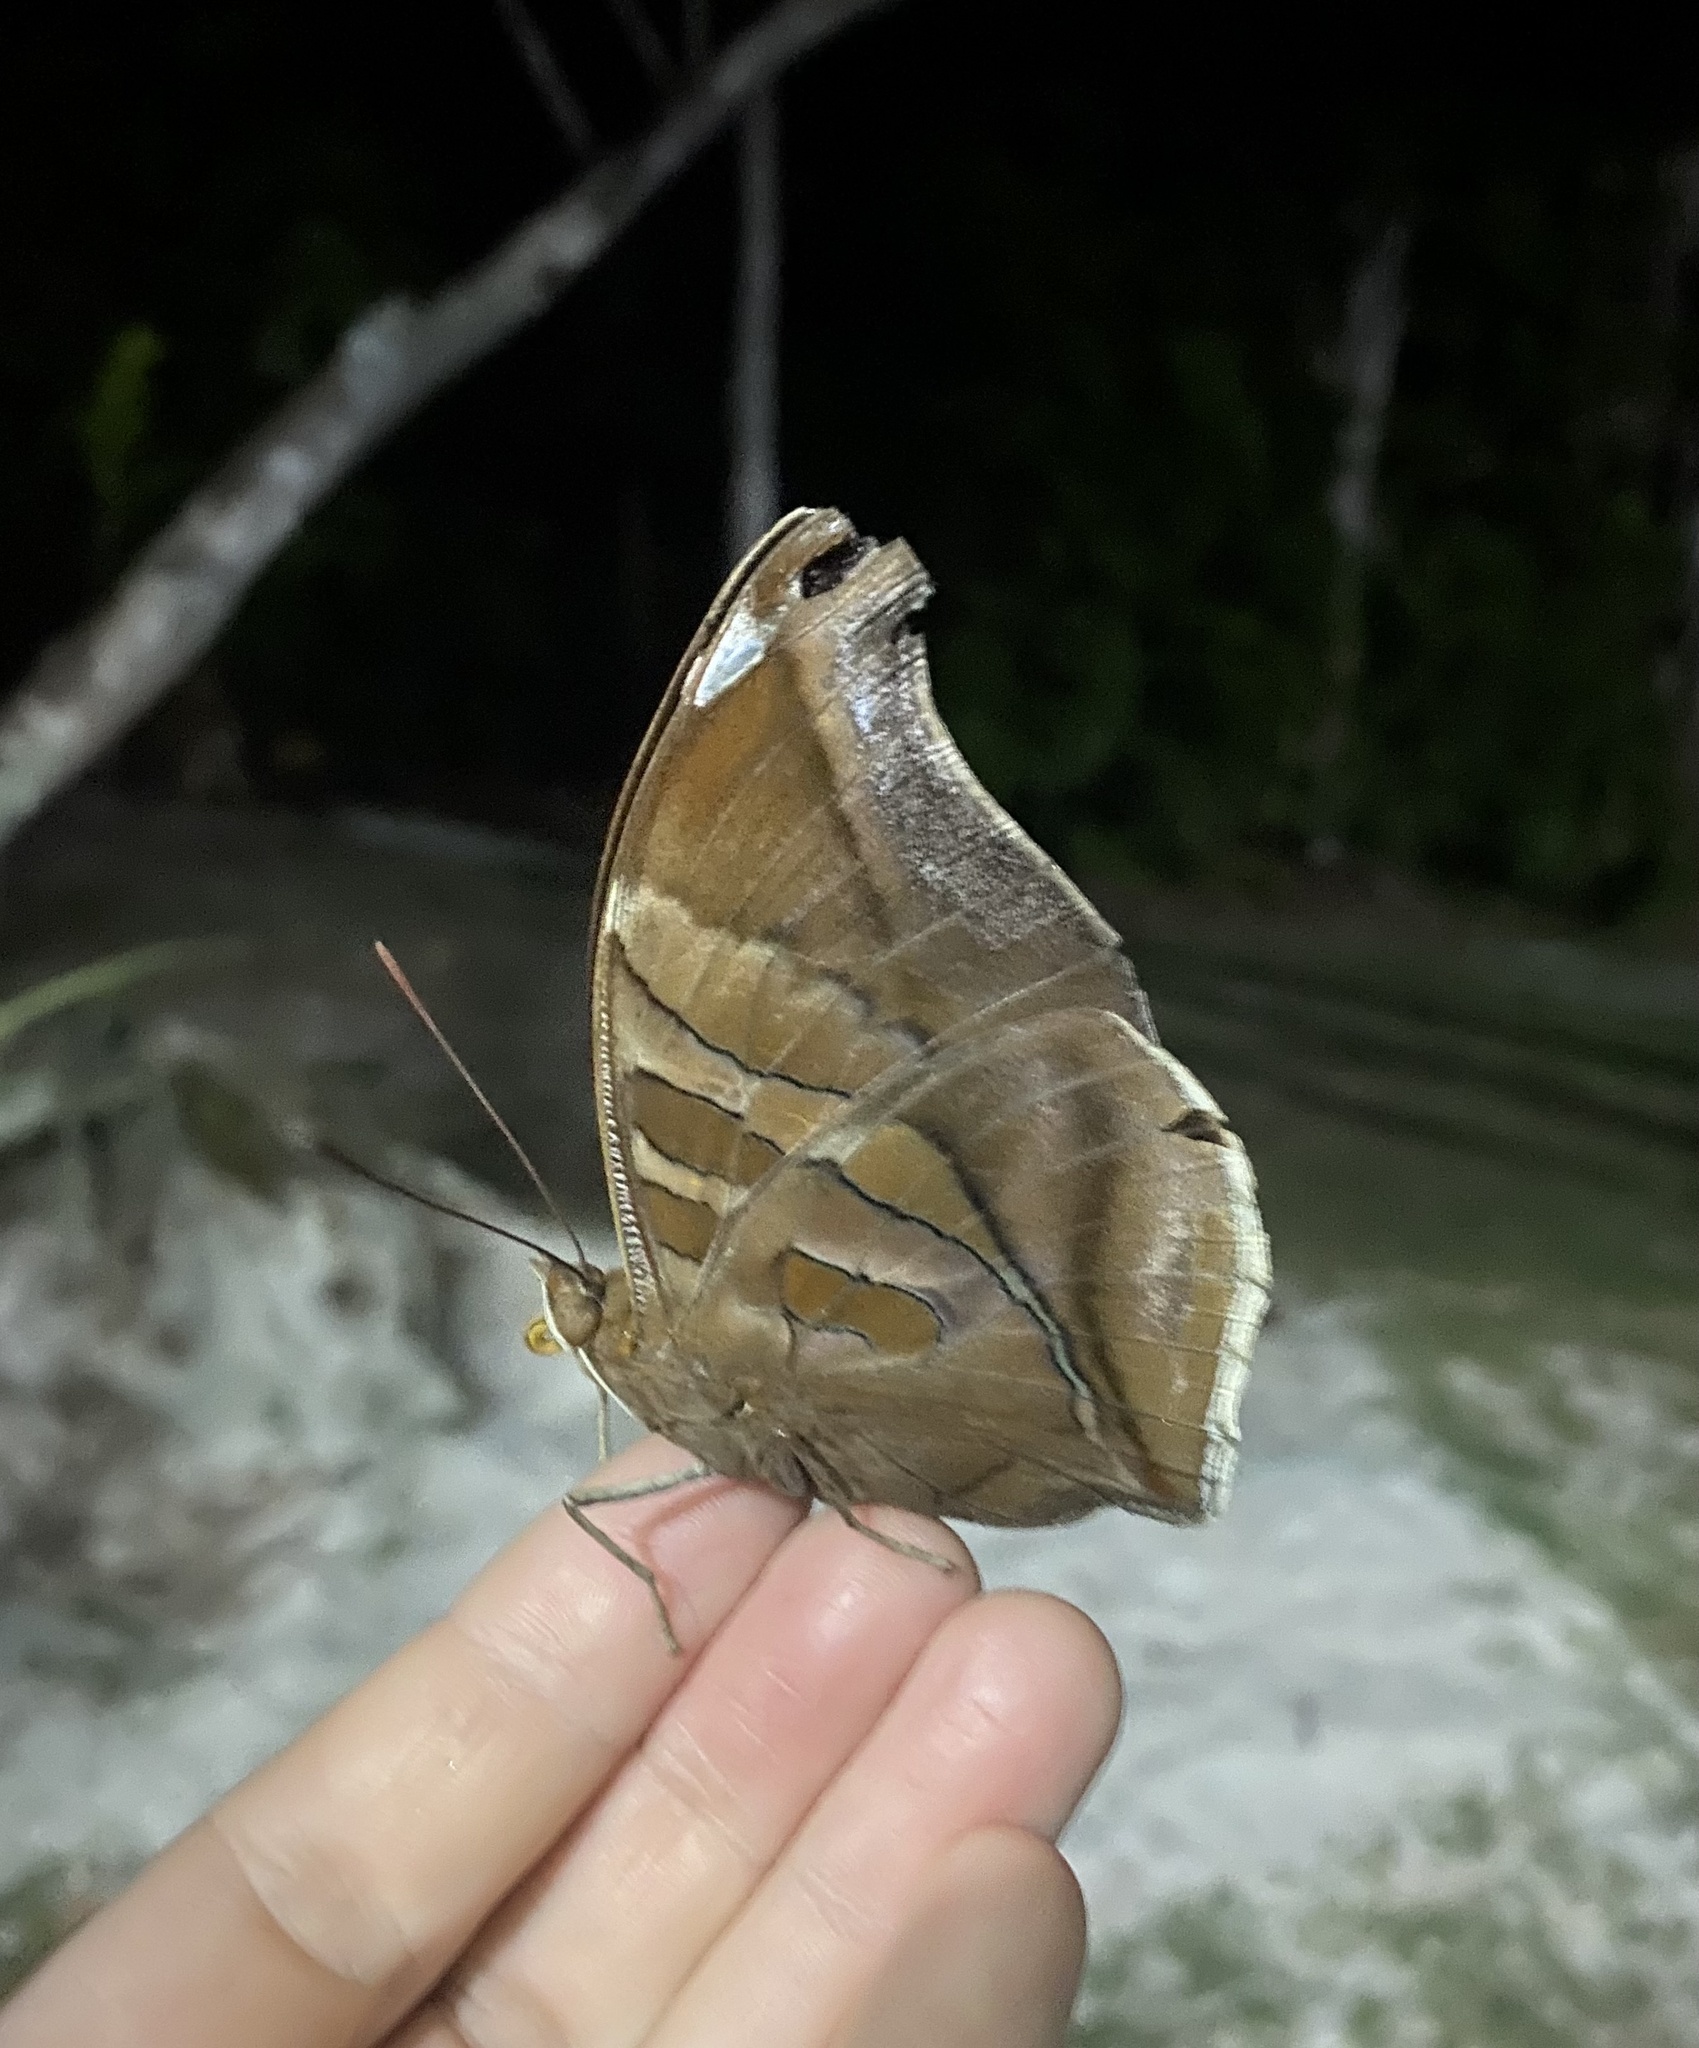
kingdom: Animalia
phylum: Arthropoda
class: Insecta
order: Lepidoptera
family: Nymphalidae
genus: Historis
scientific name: Historis odius
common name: Orion cecropian
